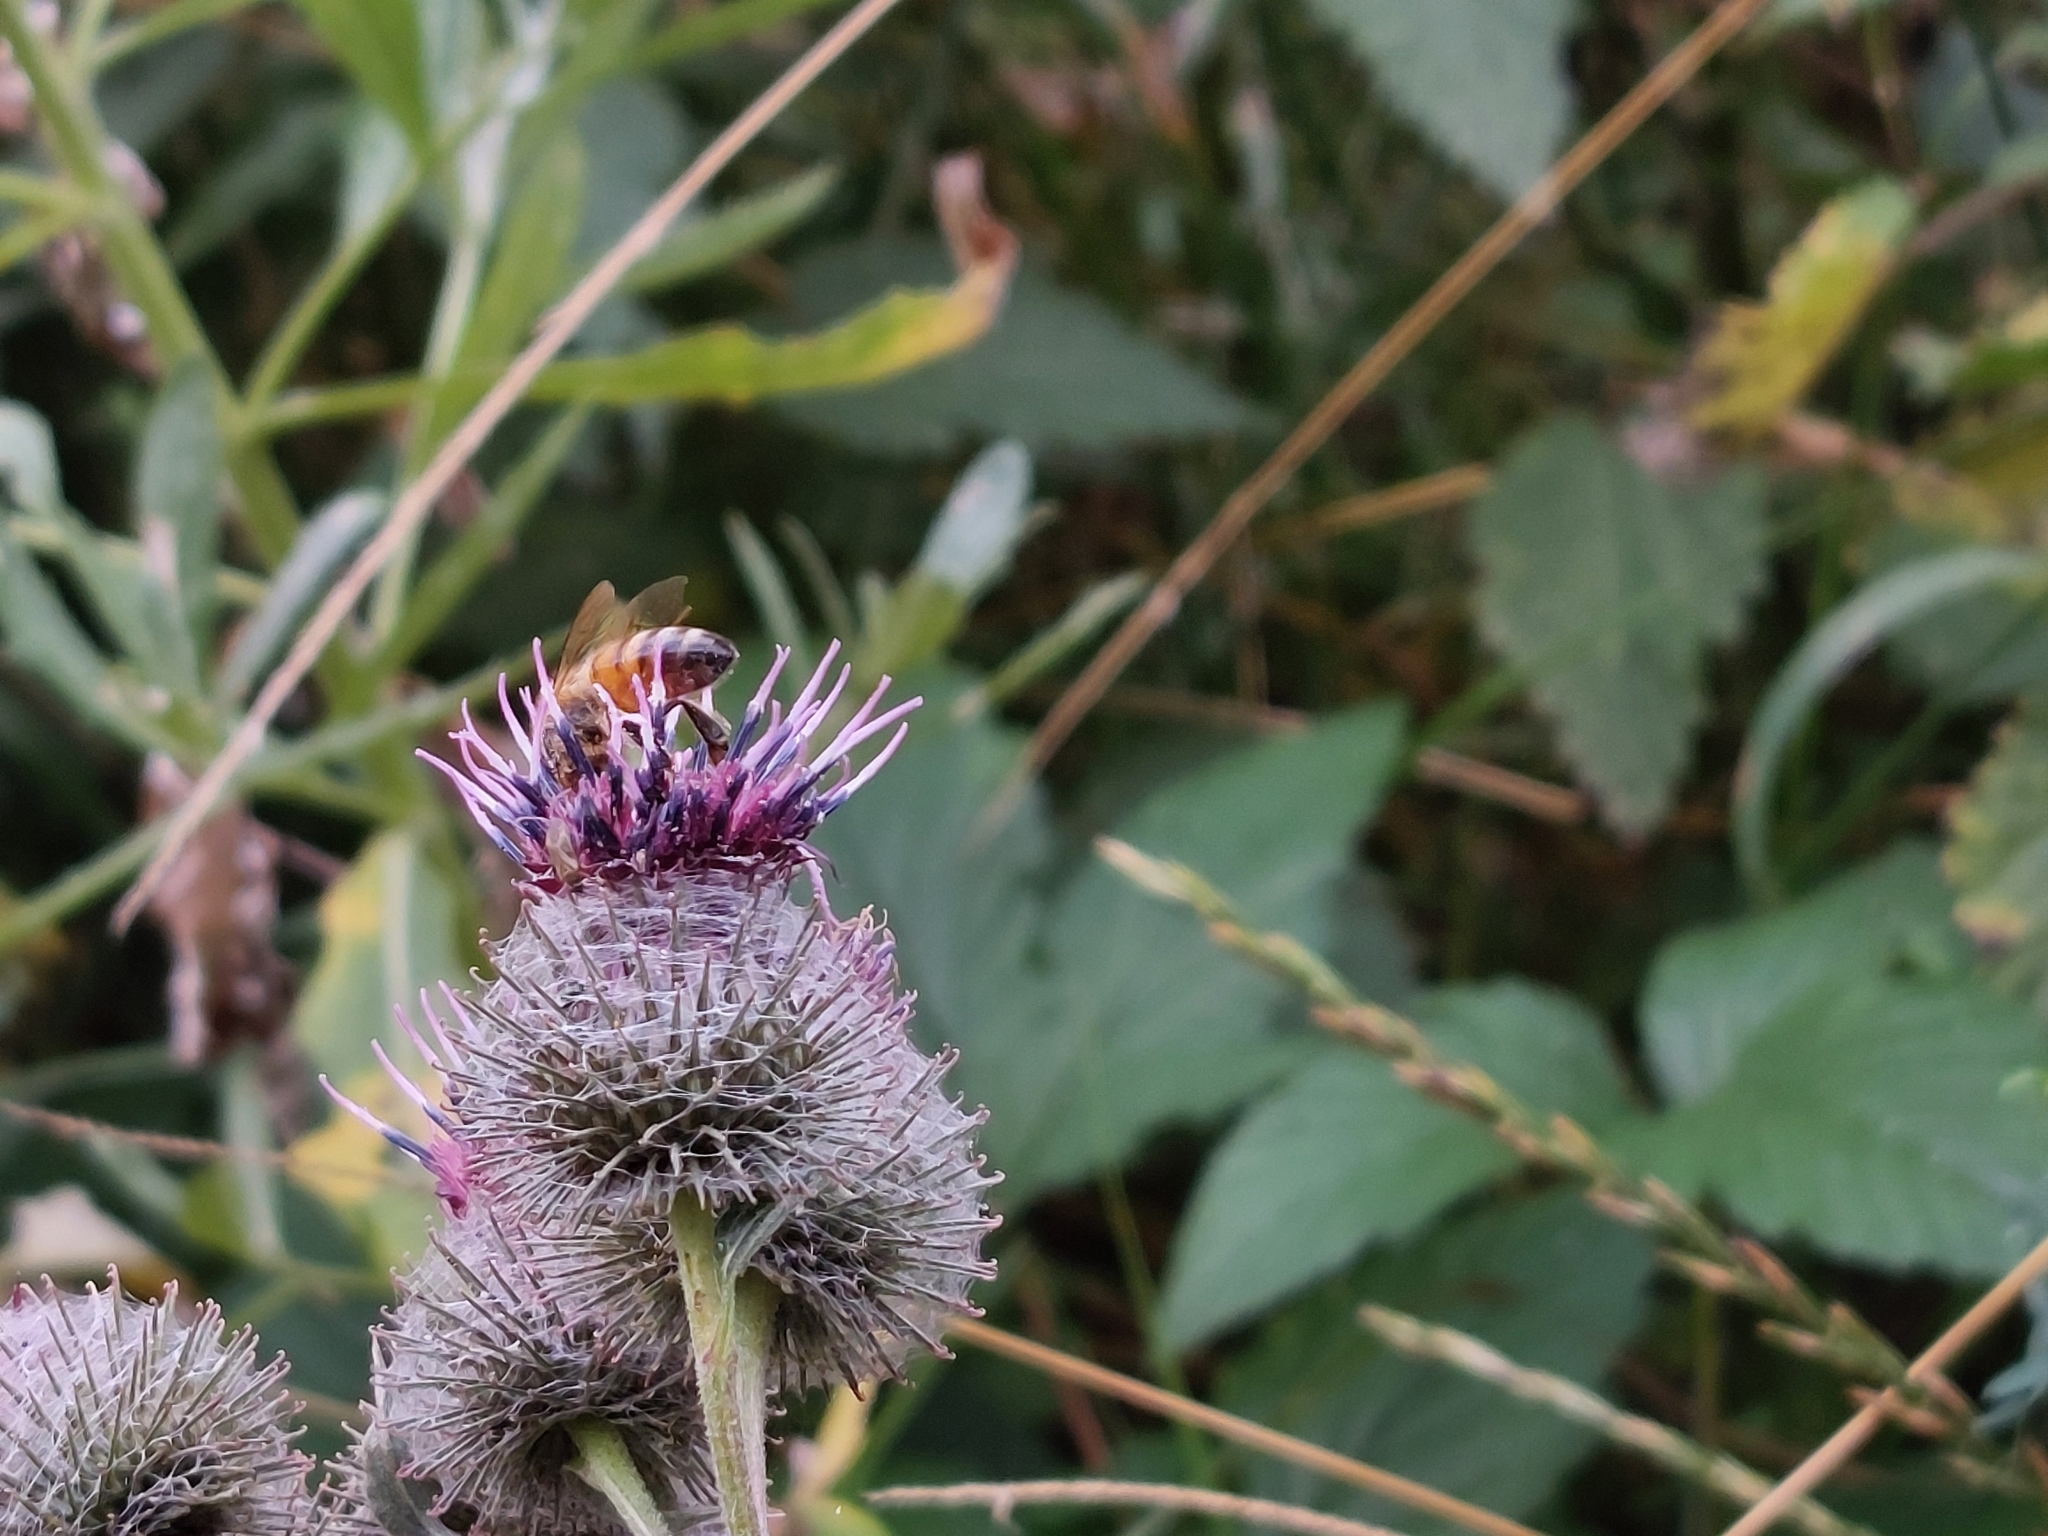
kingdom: Animalia
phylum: Arthropoda
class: Insecta
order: Hymenoptera
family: Apidae
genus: Apis
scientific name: Apis mellifera
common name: Honey bee
